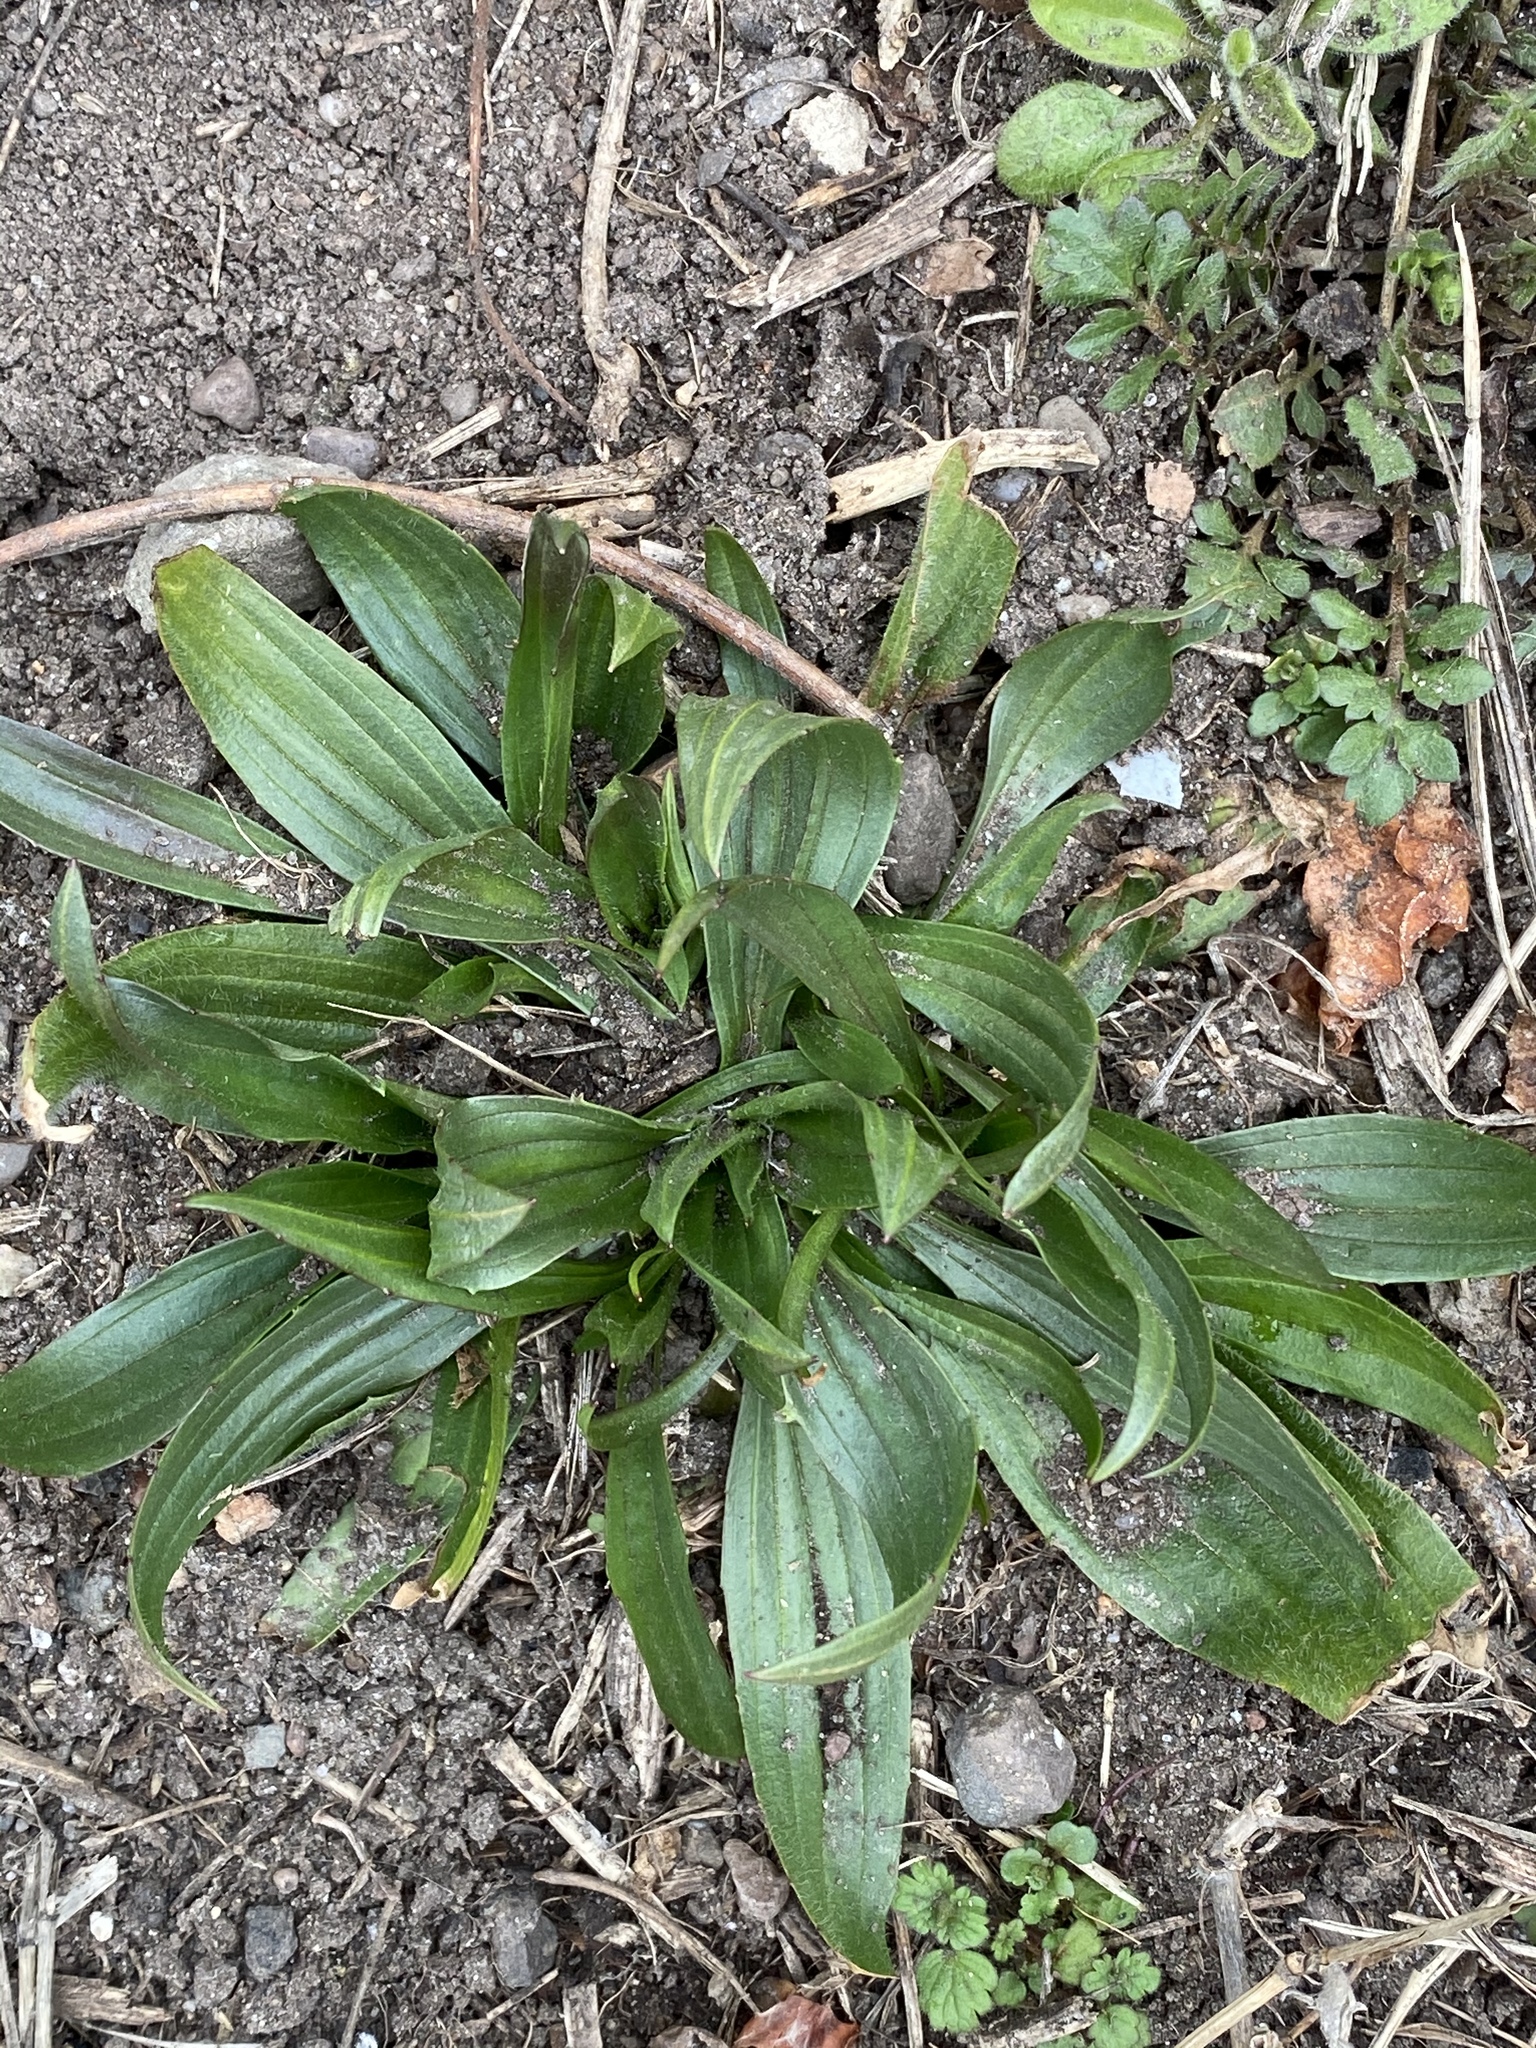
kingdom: Plantae
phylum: Tracheophyta
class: Magnoliopsida
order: Lamiales
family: Plantaginaceae
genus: Plantago
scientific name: Plantago lanceolata
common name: Ribwort plantain
